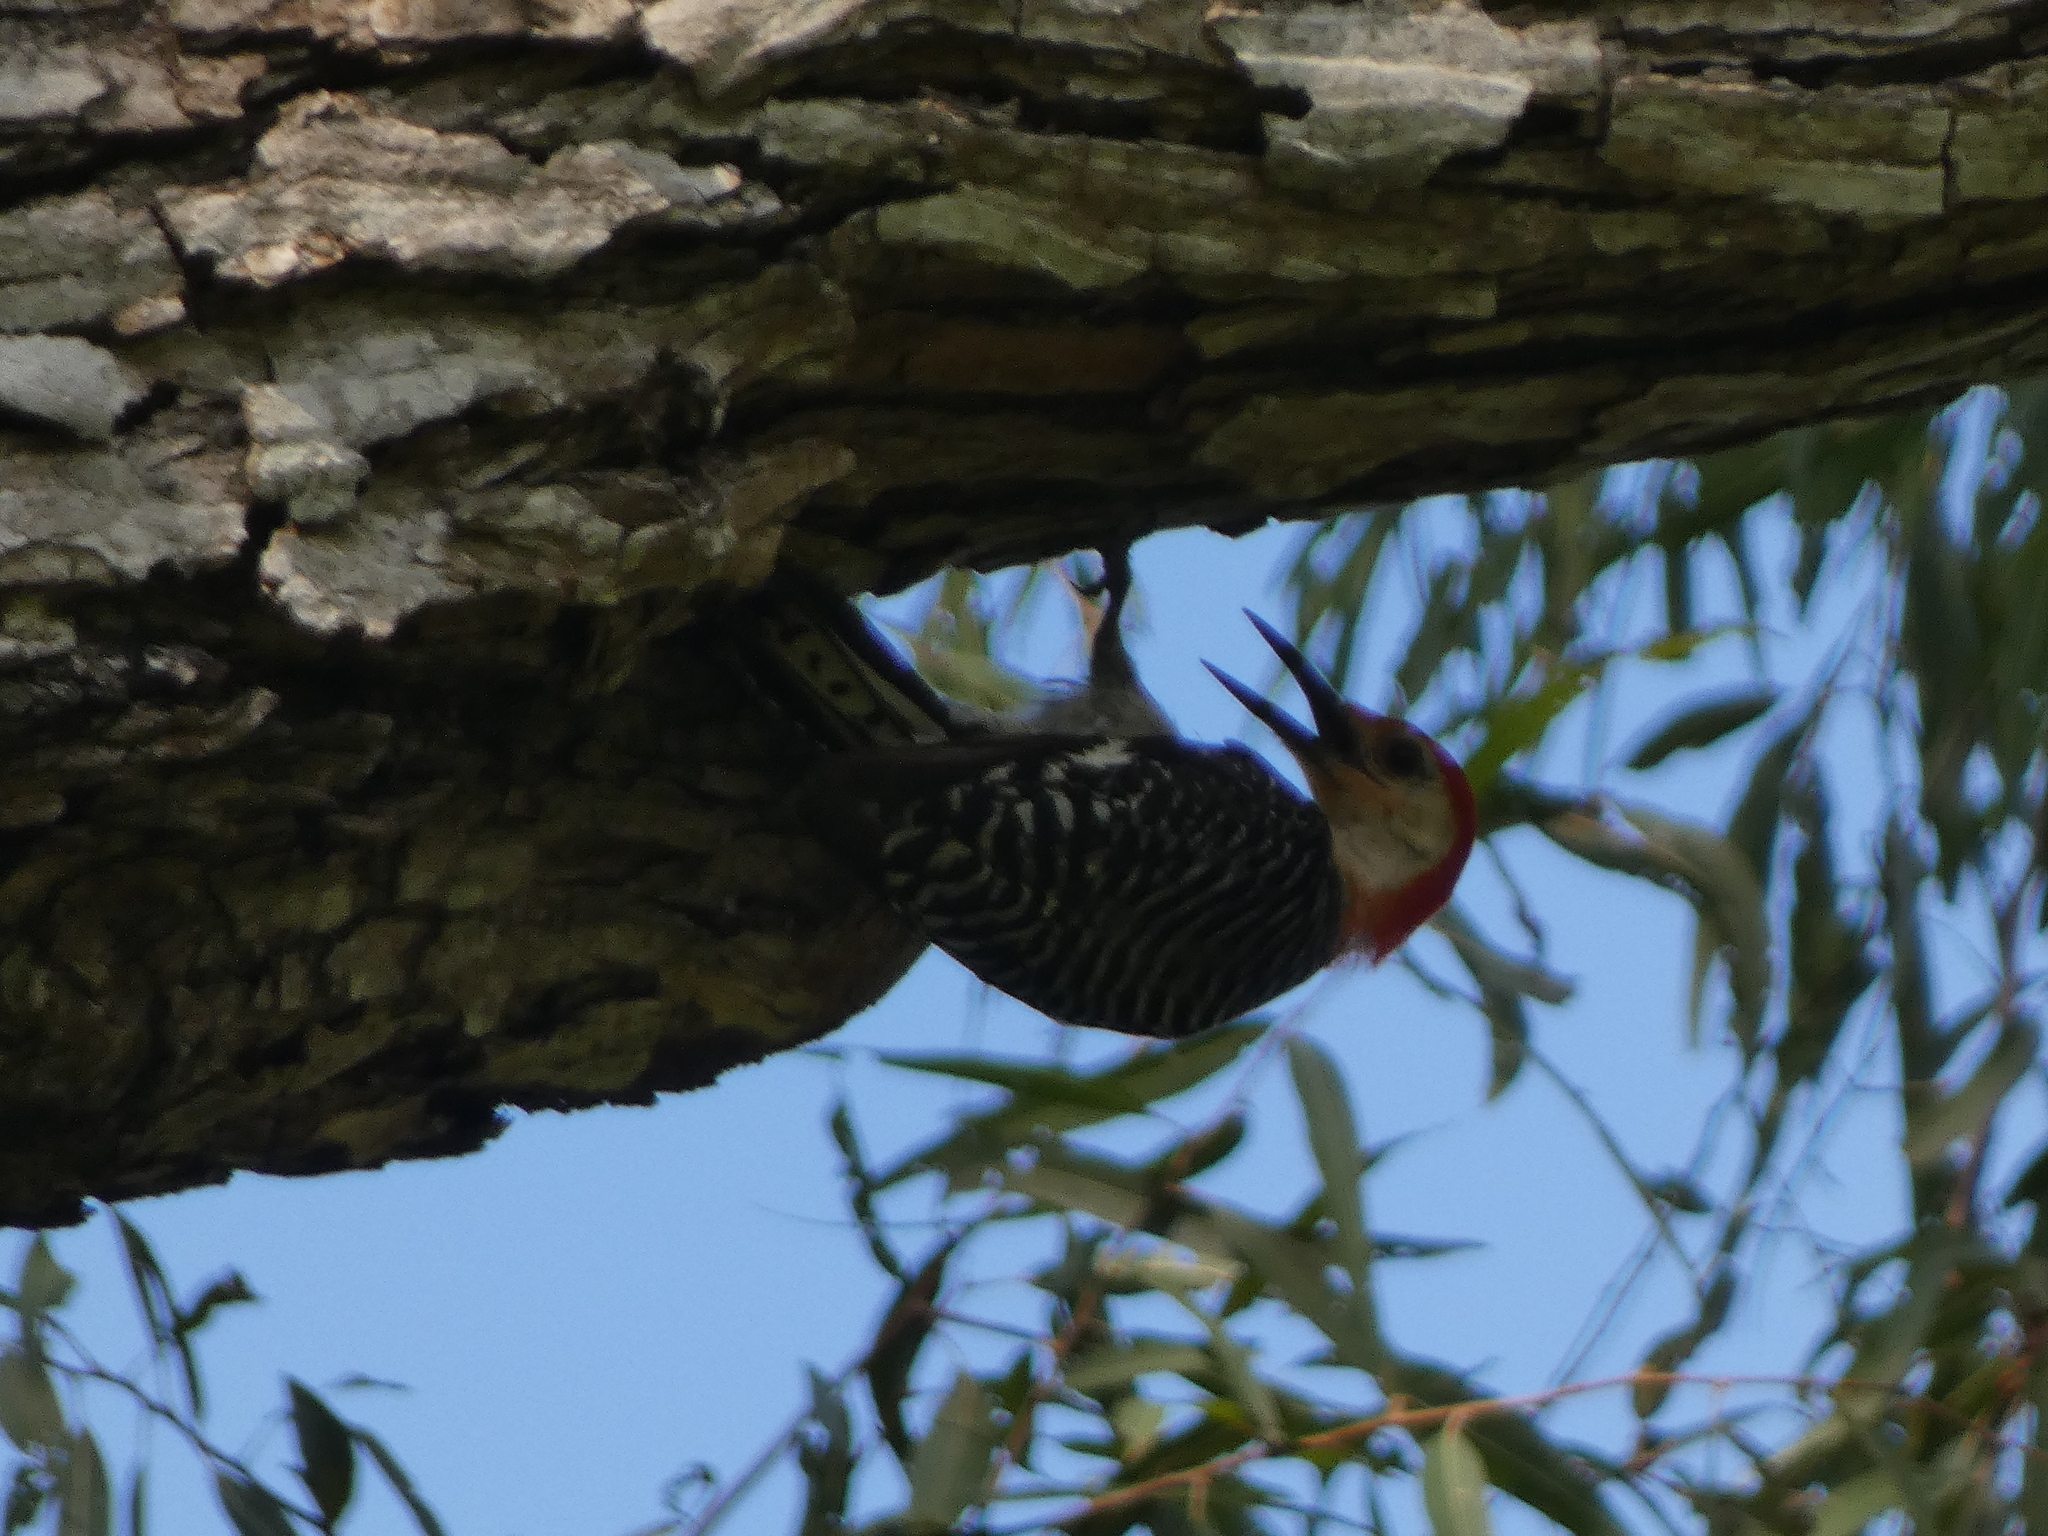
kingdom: Animalia
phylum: Chordata
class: Aves
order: Piciformes
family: Picidae
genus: Melanerpes
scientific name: Melanerpes carolinus
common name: Red-bellied woodpecker
